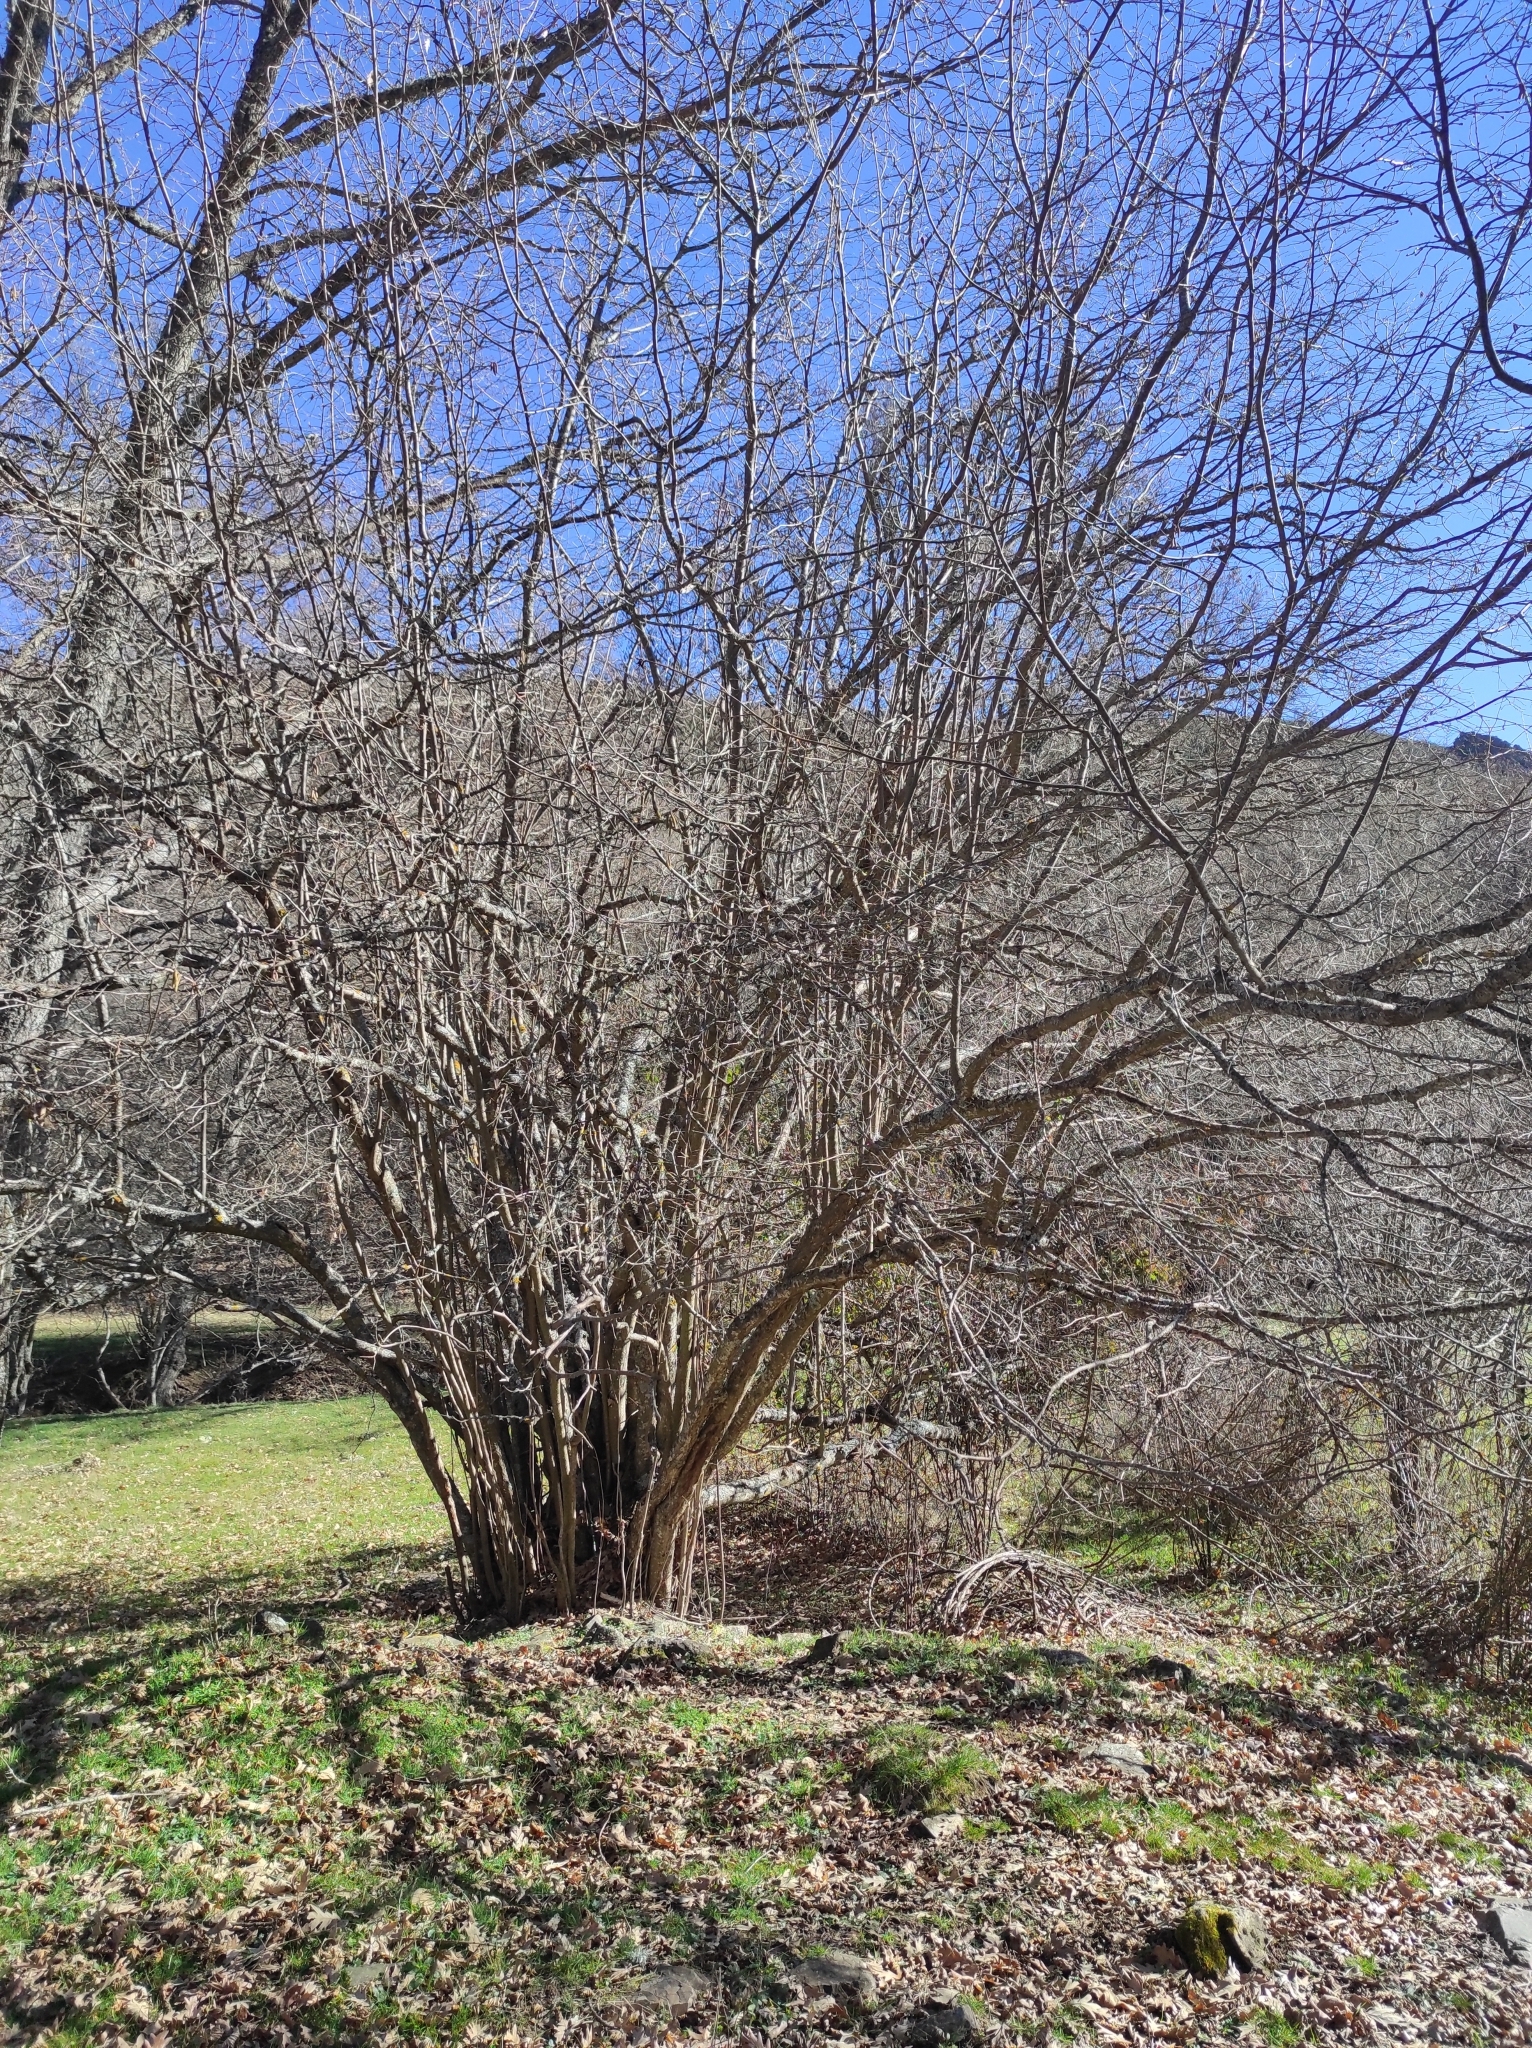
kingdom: Plantae
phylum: Tracheophyta
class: Magnoliopsida
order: Fagales
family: Betulaceae
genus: Corylus
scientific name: Corylus avellana
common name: European hazel
